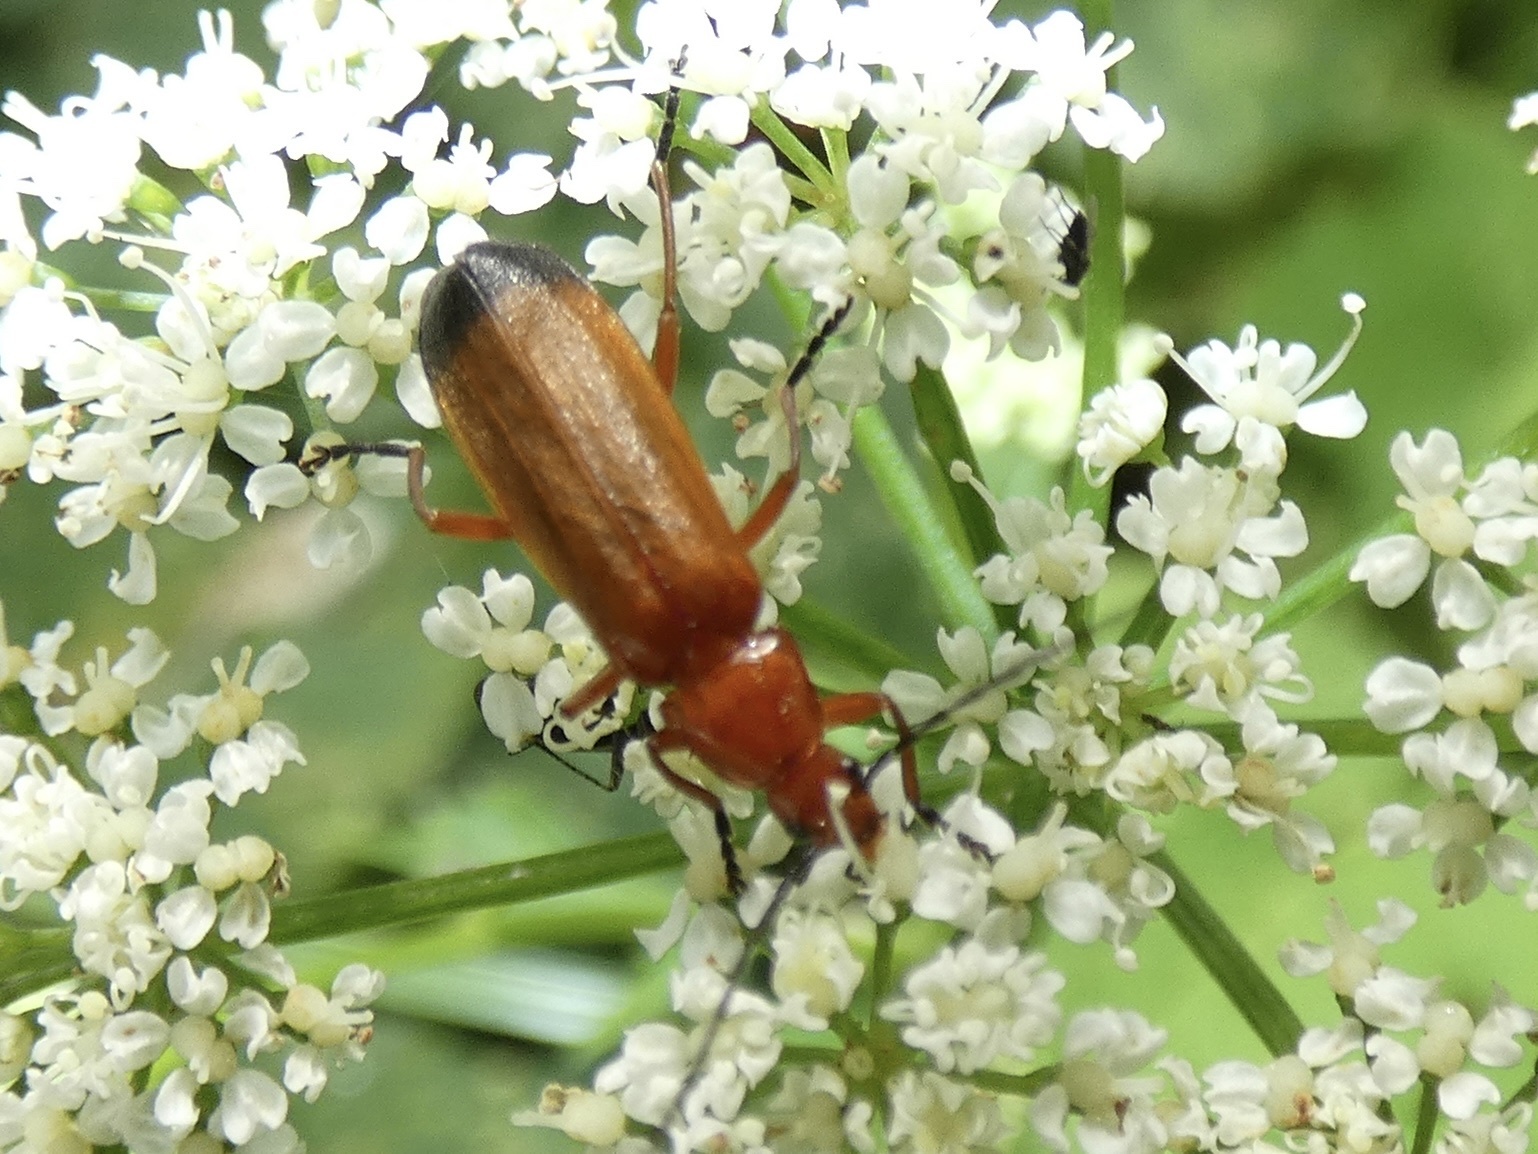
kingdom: Animalia
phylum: Arthropoda
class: Insecta
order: Coleoptera
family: Cantharidae
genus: Rhagonycha
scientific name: Rhagonycha fulva
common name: Common red soldier beetle
